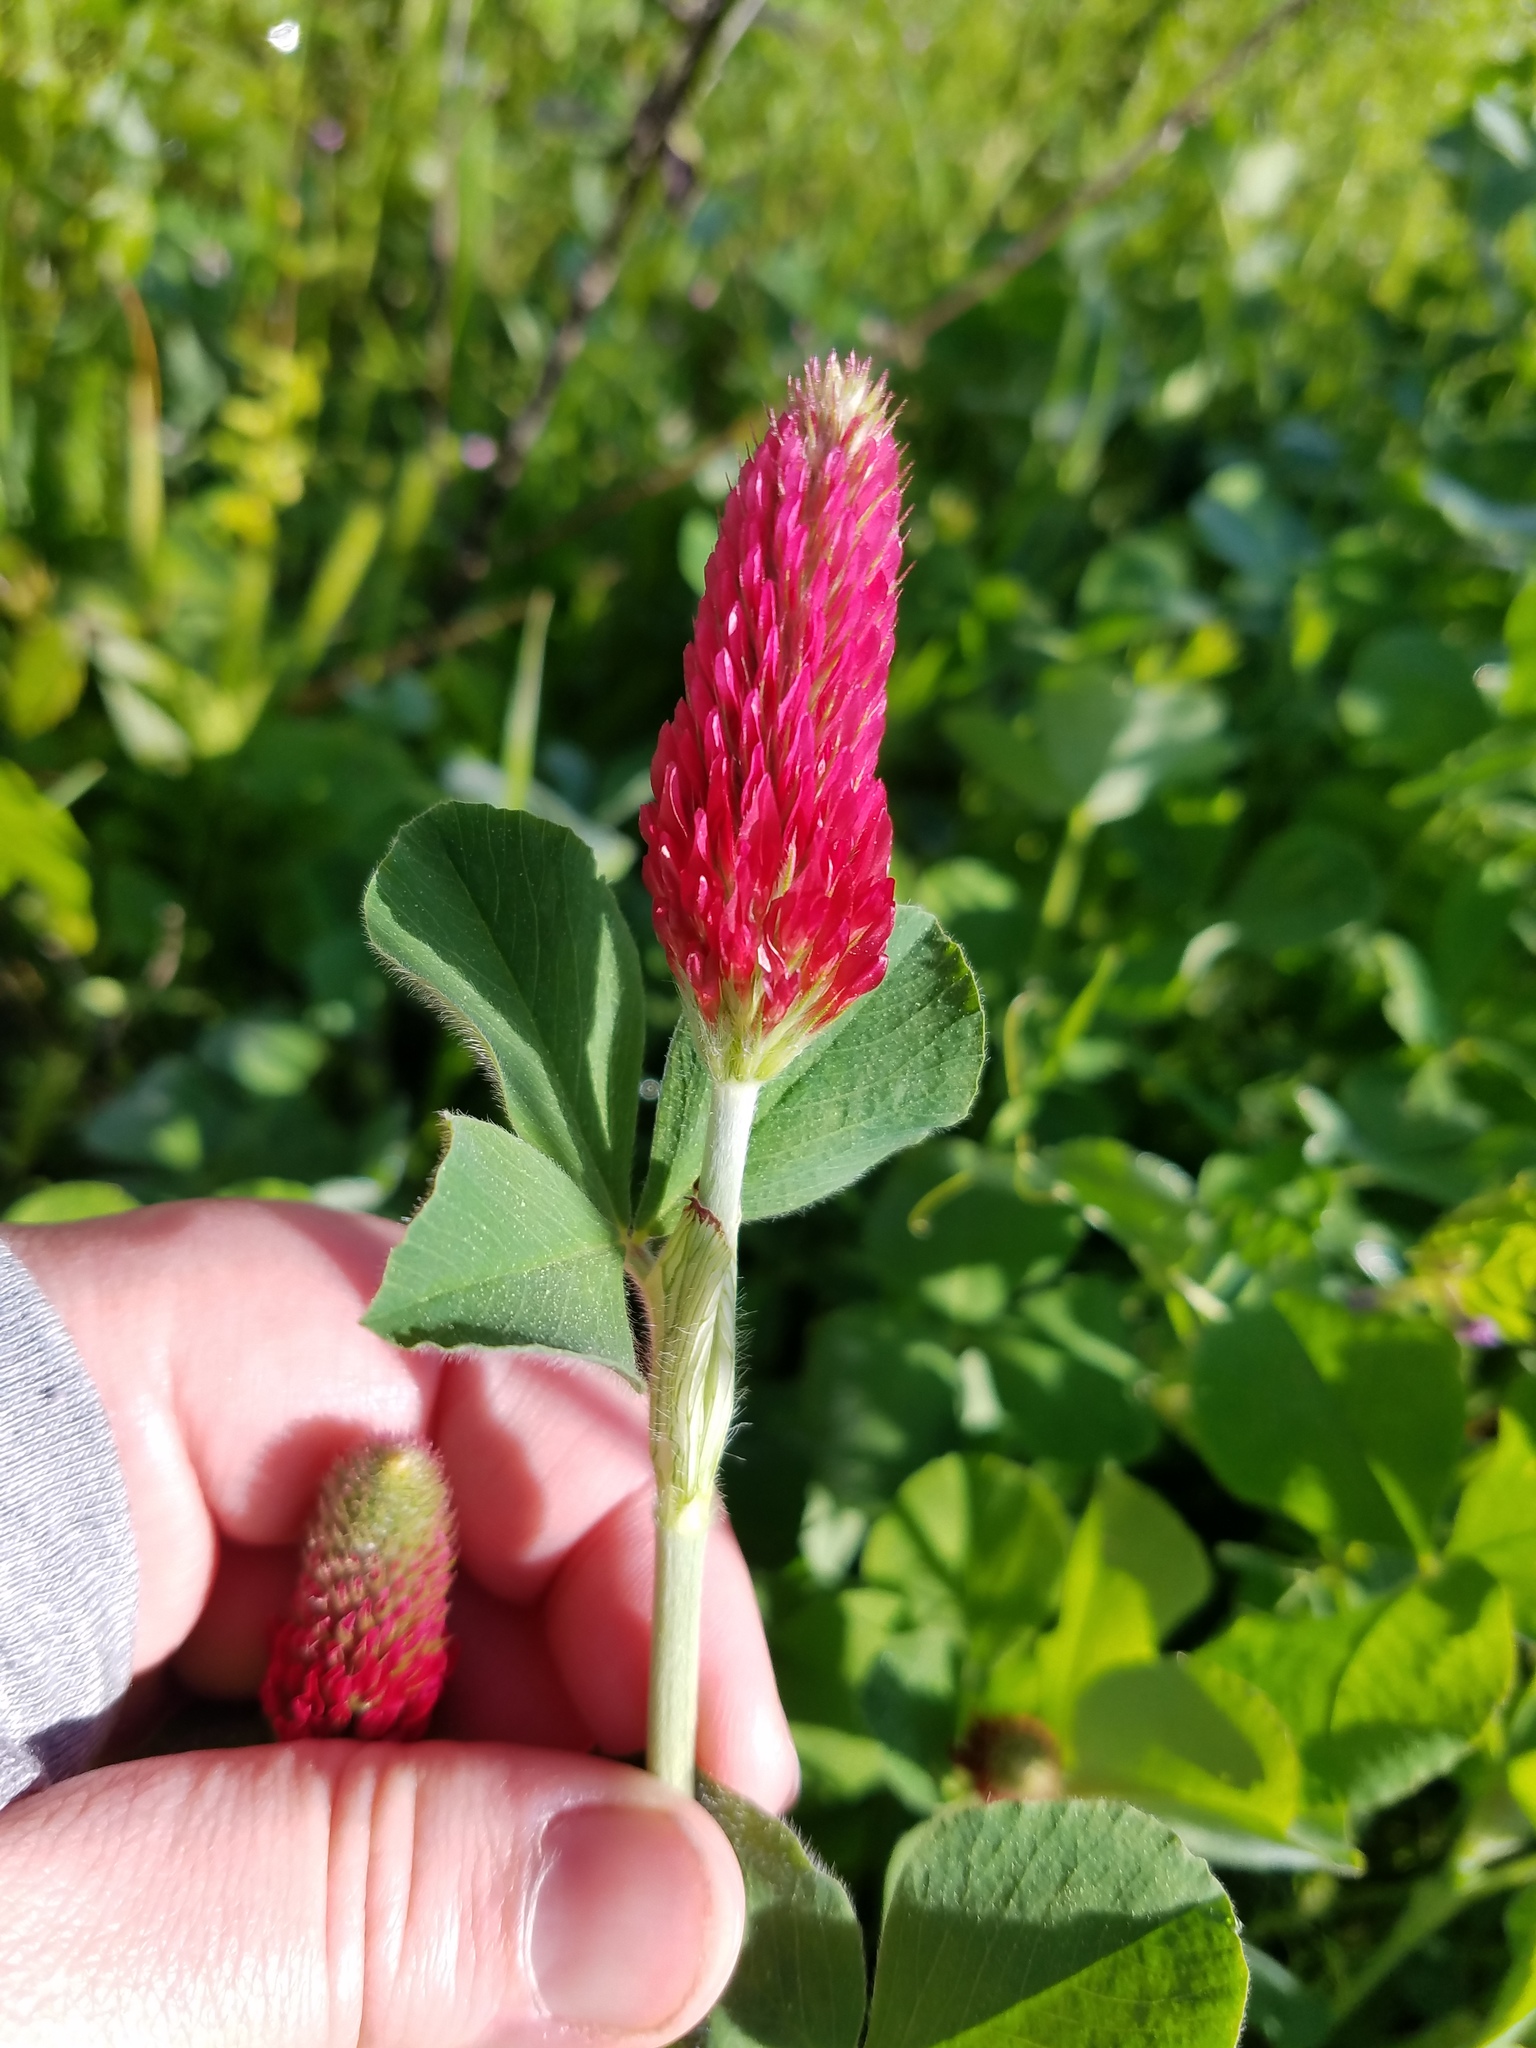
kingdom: Plantae
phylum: Tracheophyta
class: Magnoliopsida
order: Fabales
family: Fabaceae
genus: Trifolium
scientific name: Trifolium incarnatum
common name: Crimson clover
